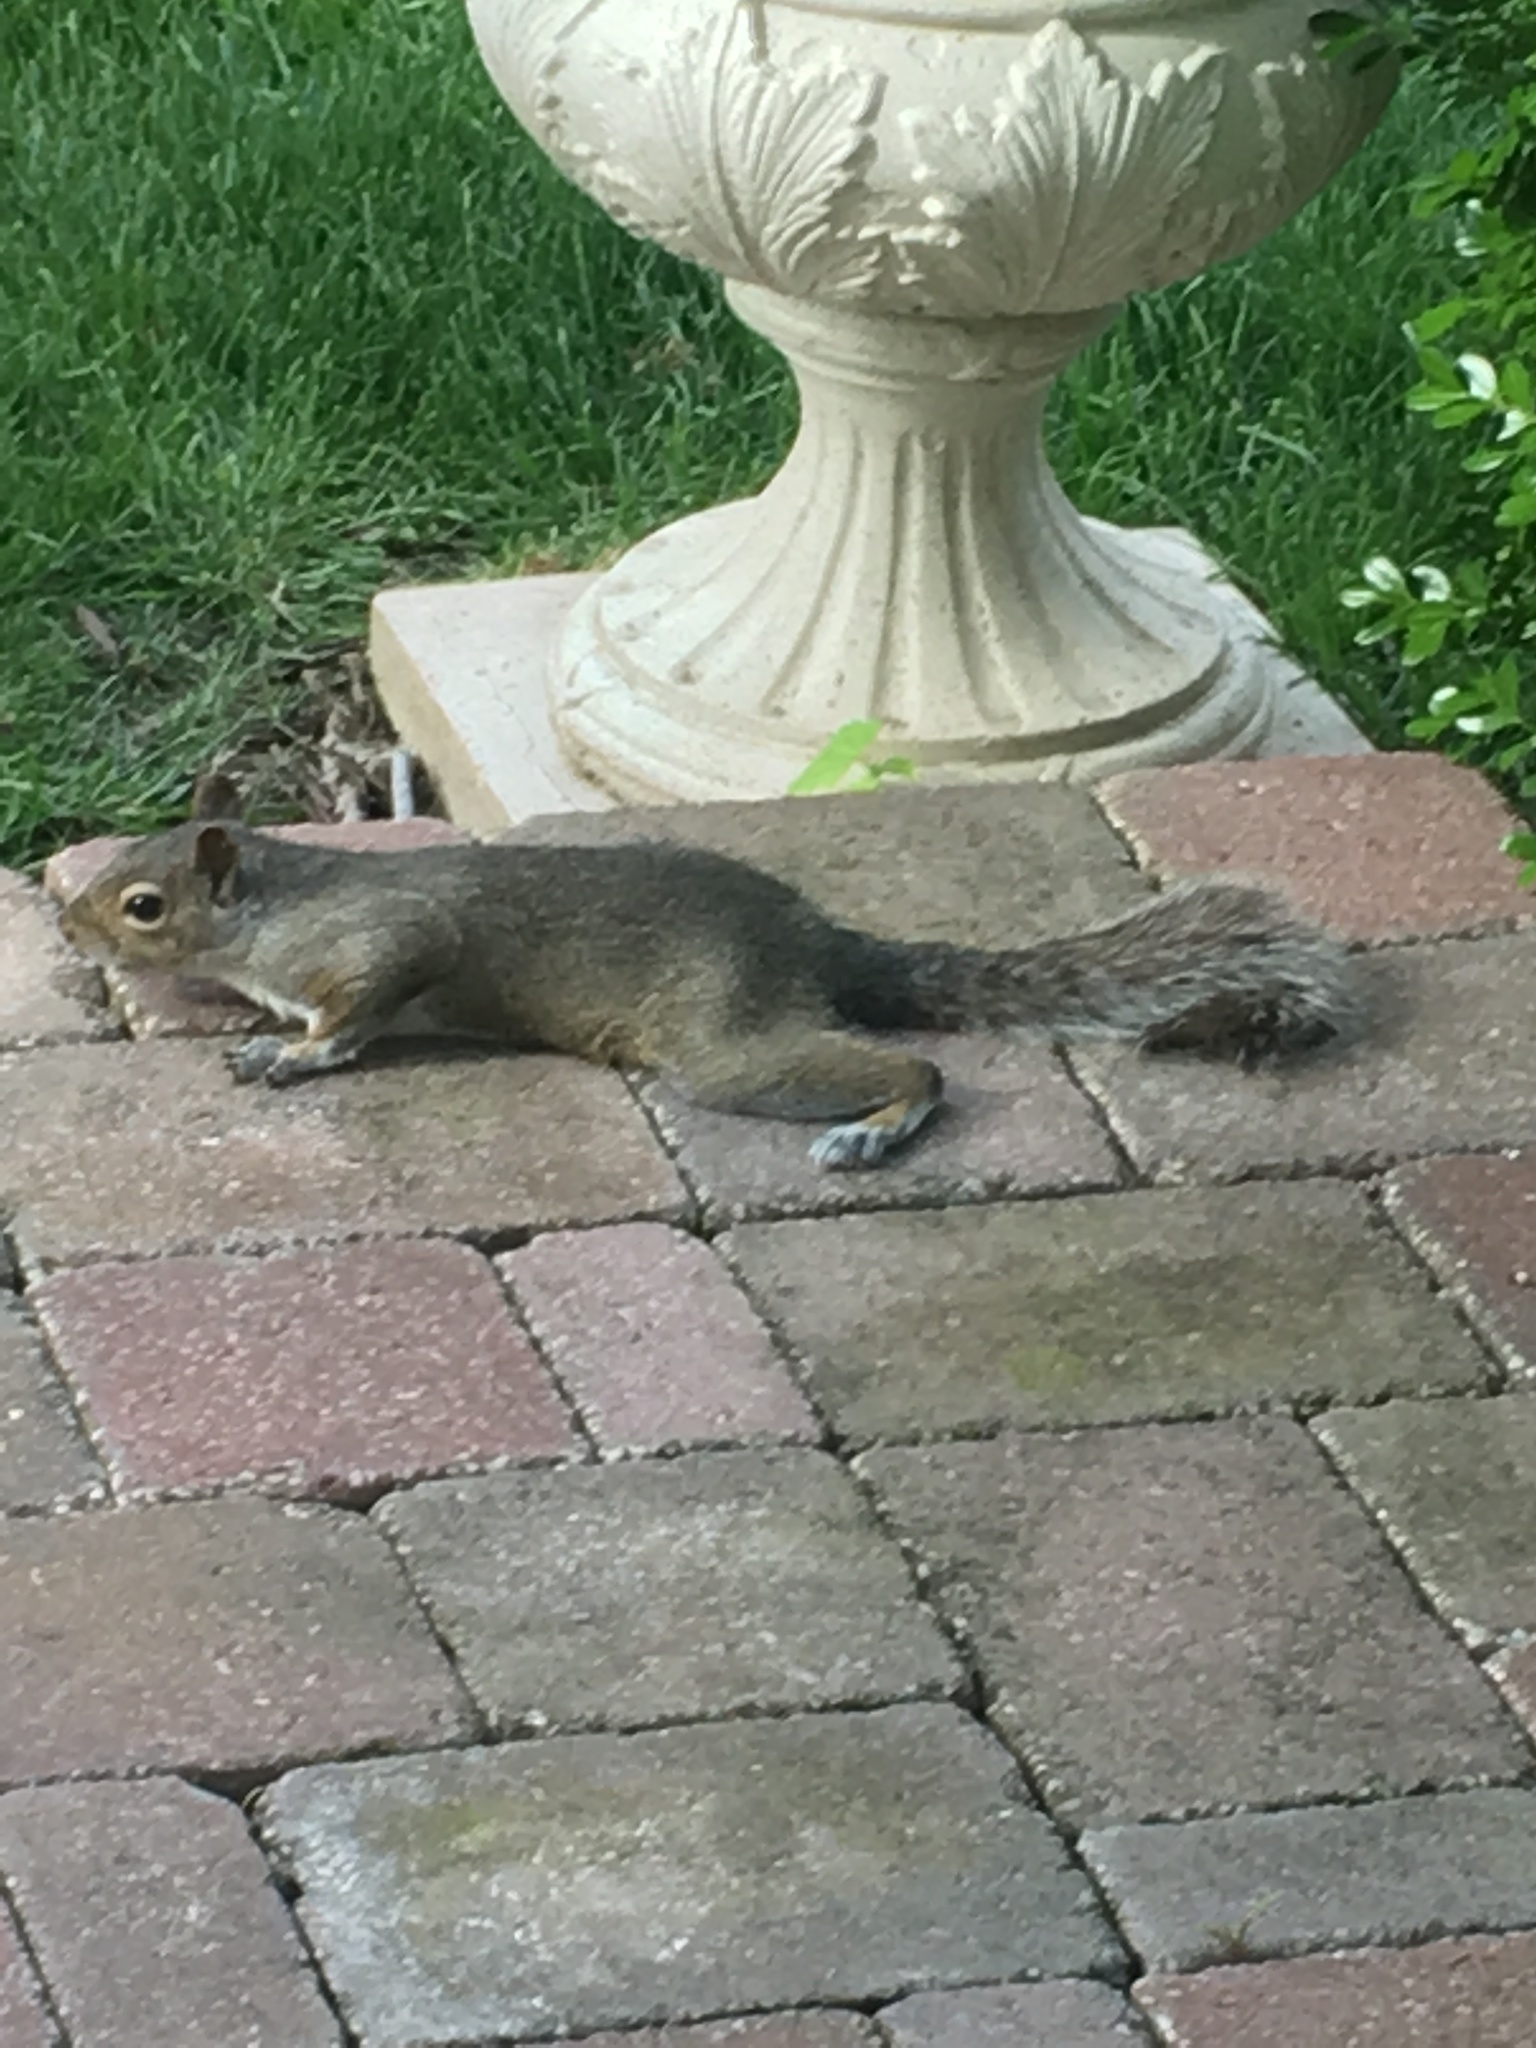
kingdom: Animalia
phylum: Chordata
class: Mammalia
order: Rodentia
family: Sciuridae
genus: Sciurus
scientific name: Sciurus carolinensis
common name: Eastern gray squirrel
